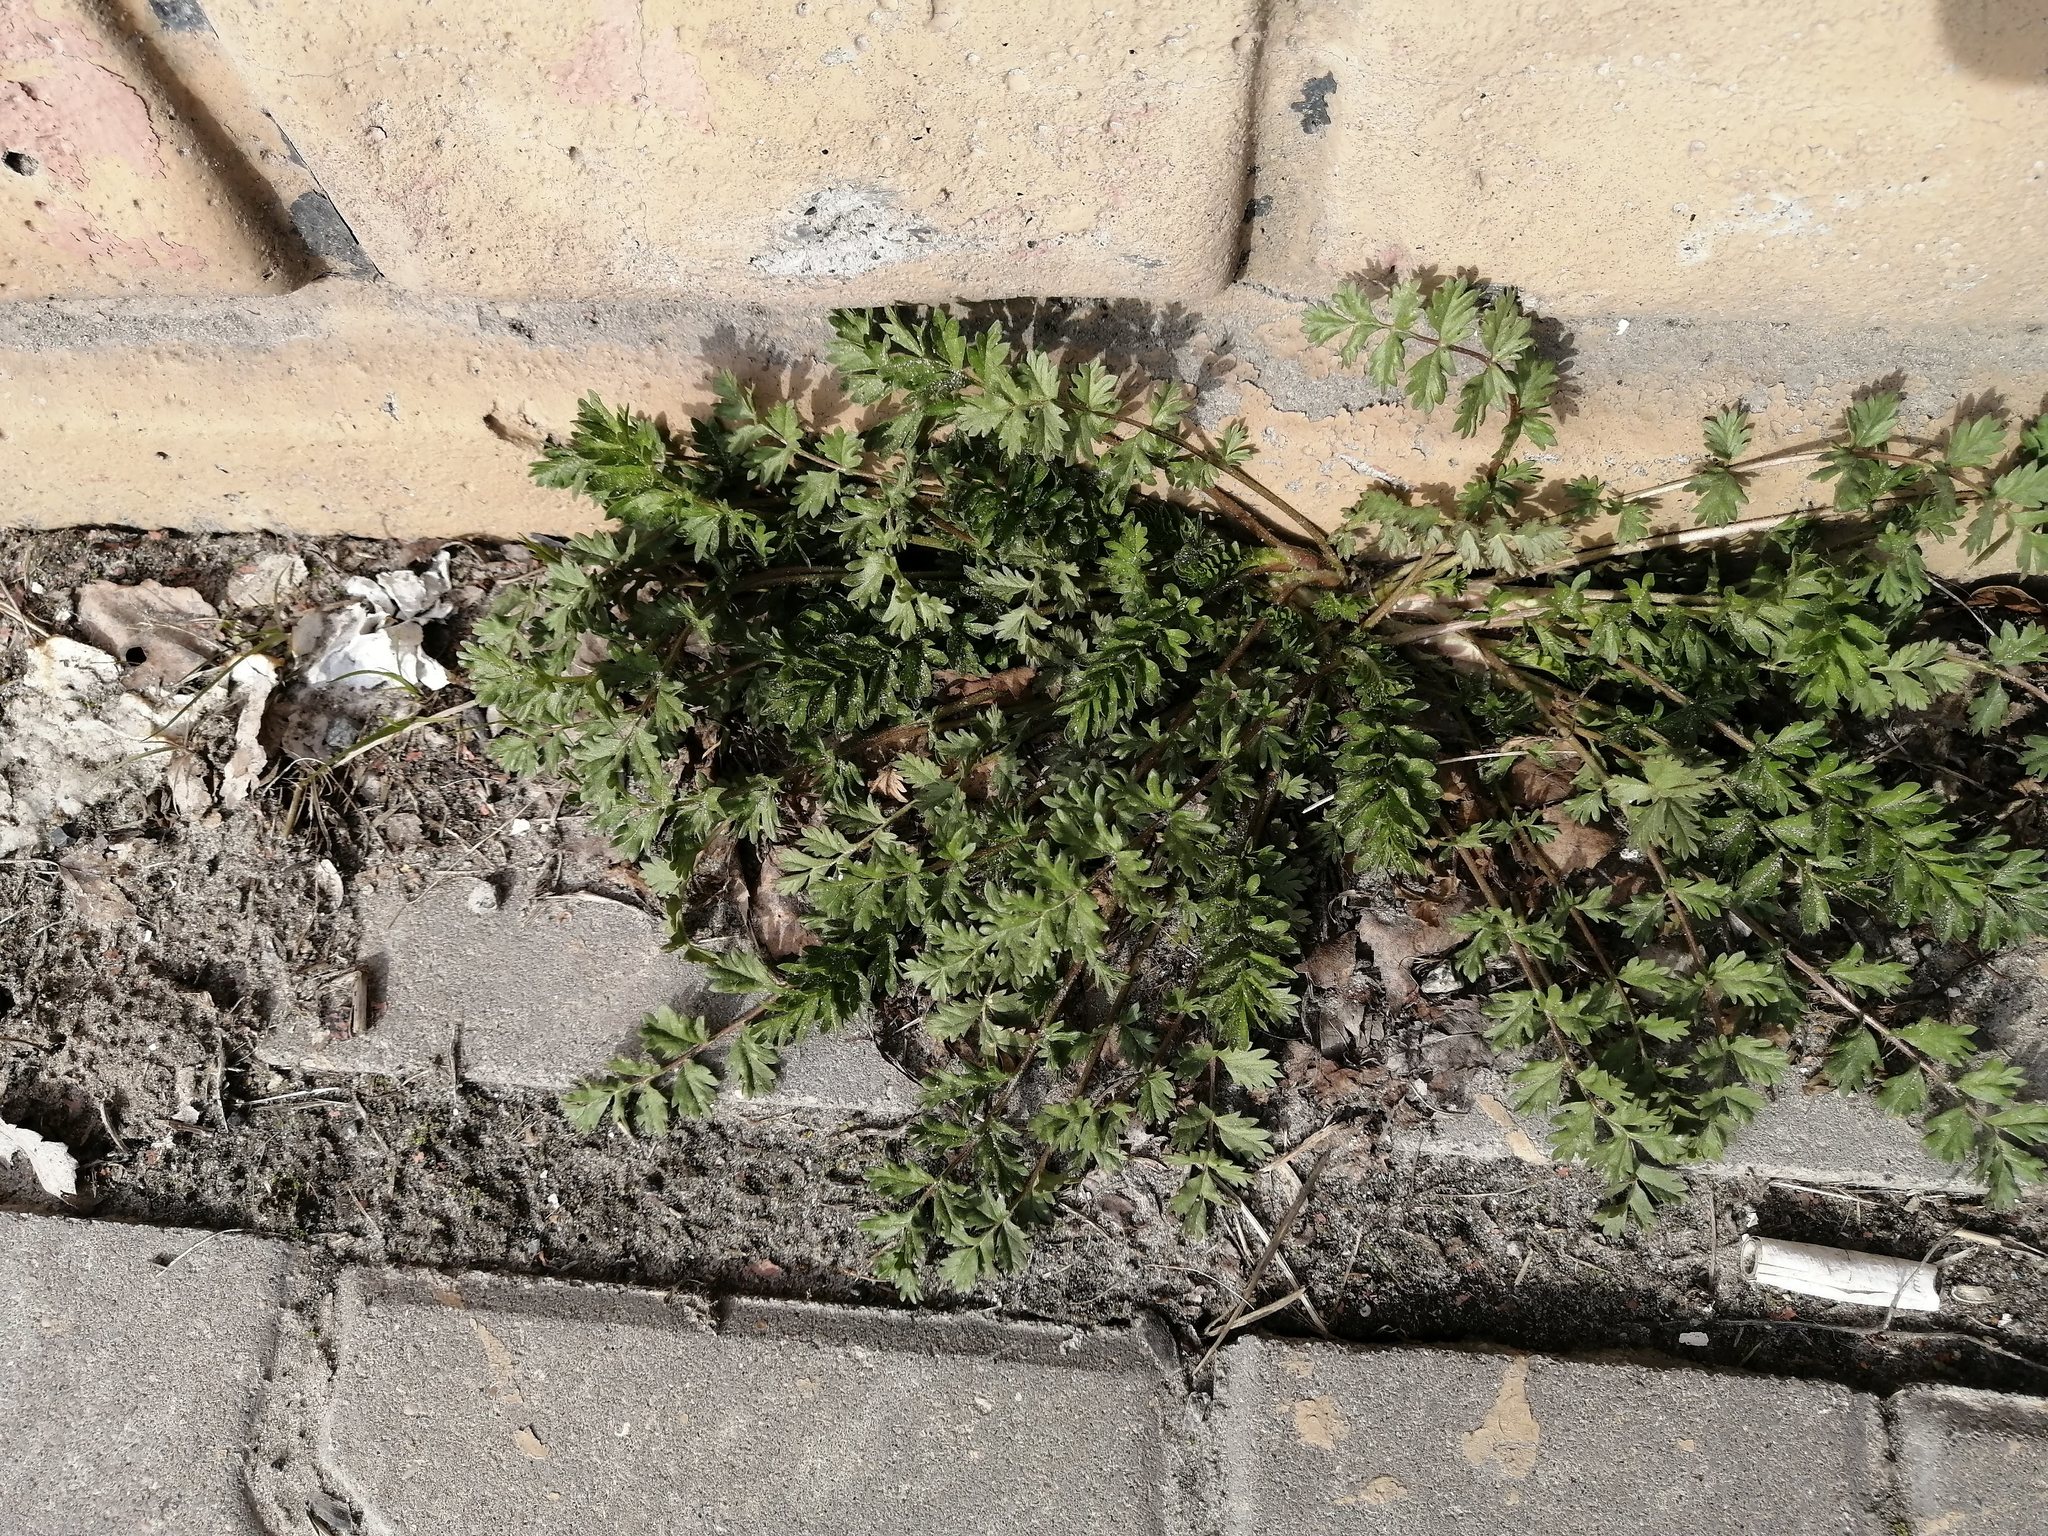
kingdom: Plantae
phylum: Tracheophyta
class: Magnoliopsida
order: Rosales
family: Rosaceae
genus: Potentilla
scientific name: Potentilla supina
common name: Prostrate cinquefoil
